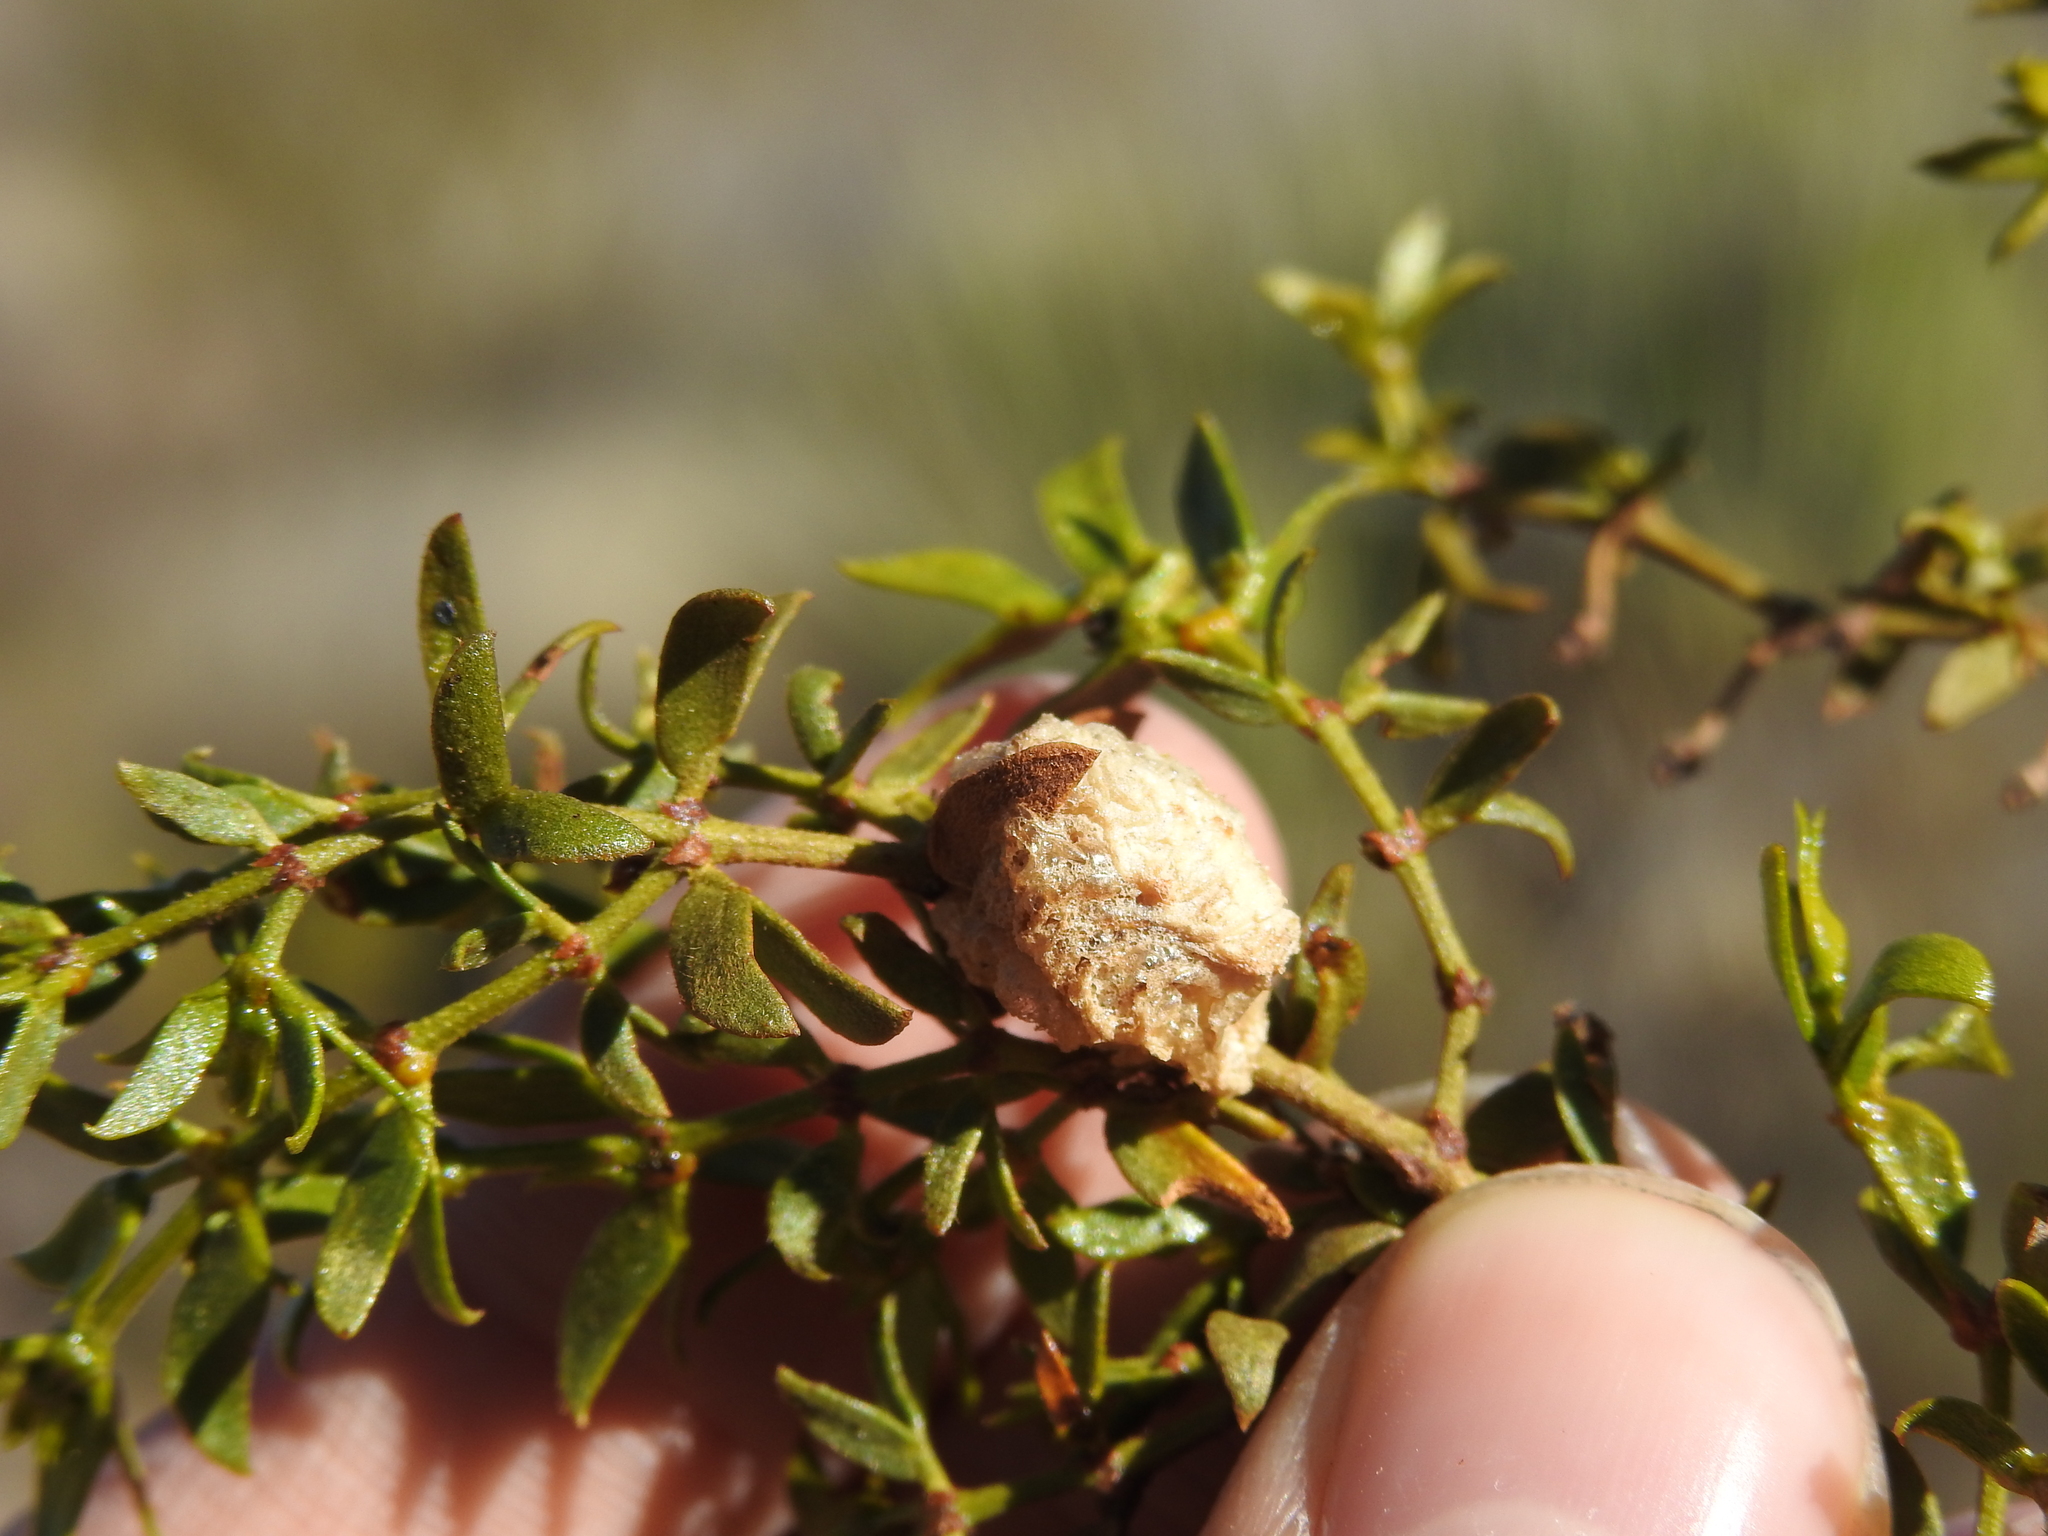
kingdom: Animalia
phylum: Arthropoda
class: Insecta
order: Mantodea
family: Mantidae
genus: Stagmomantis
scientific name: Stagmomantis californica
